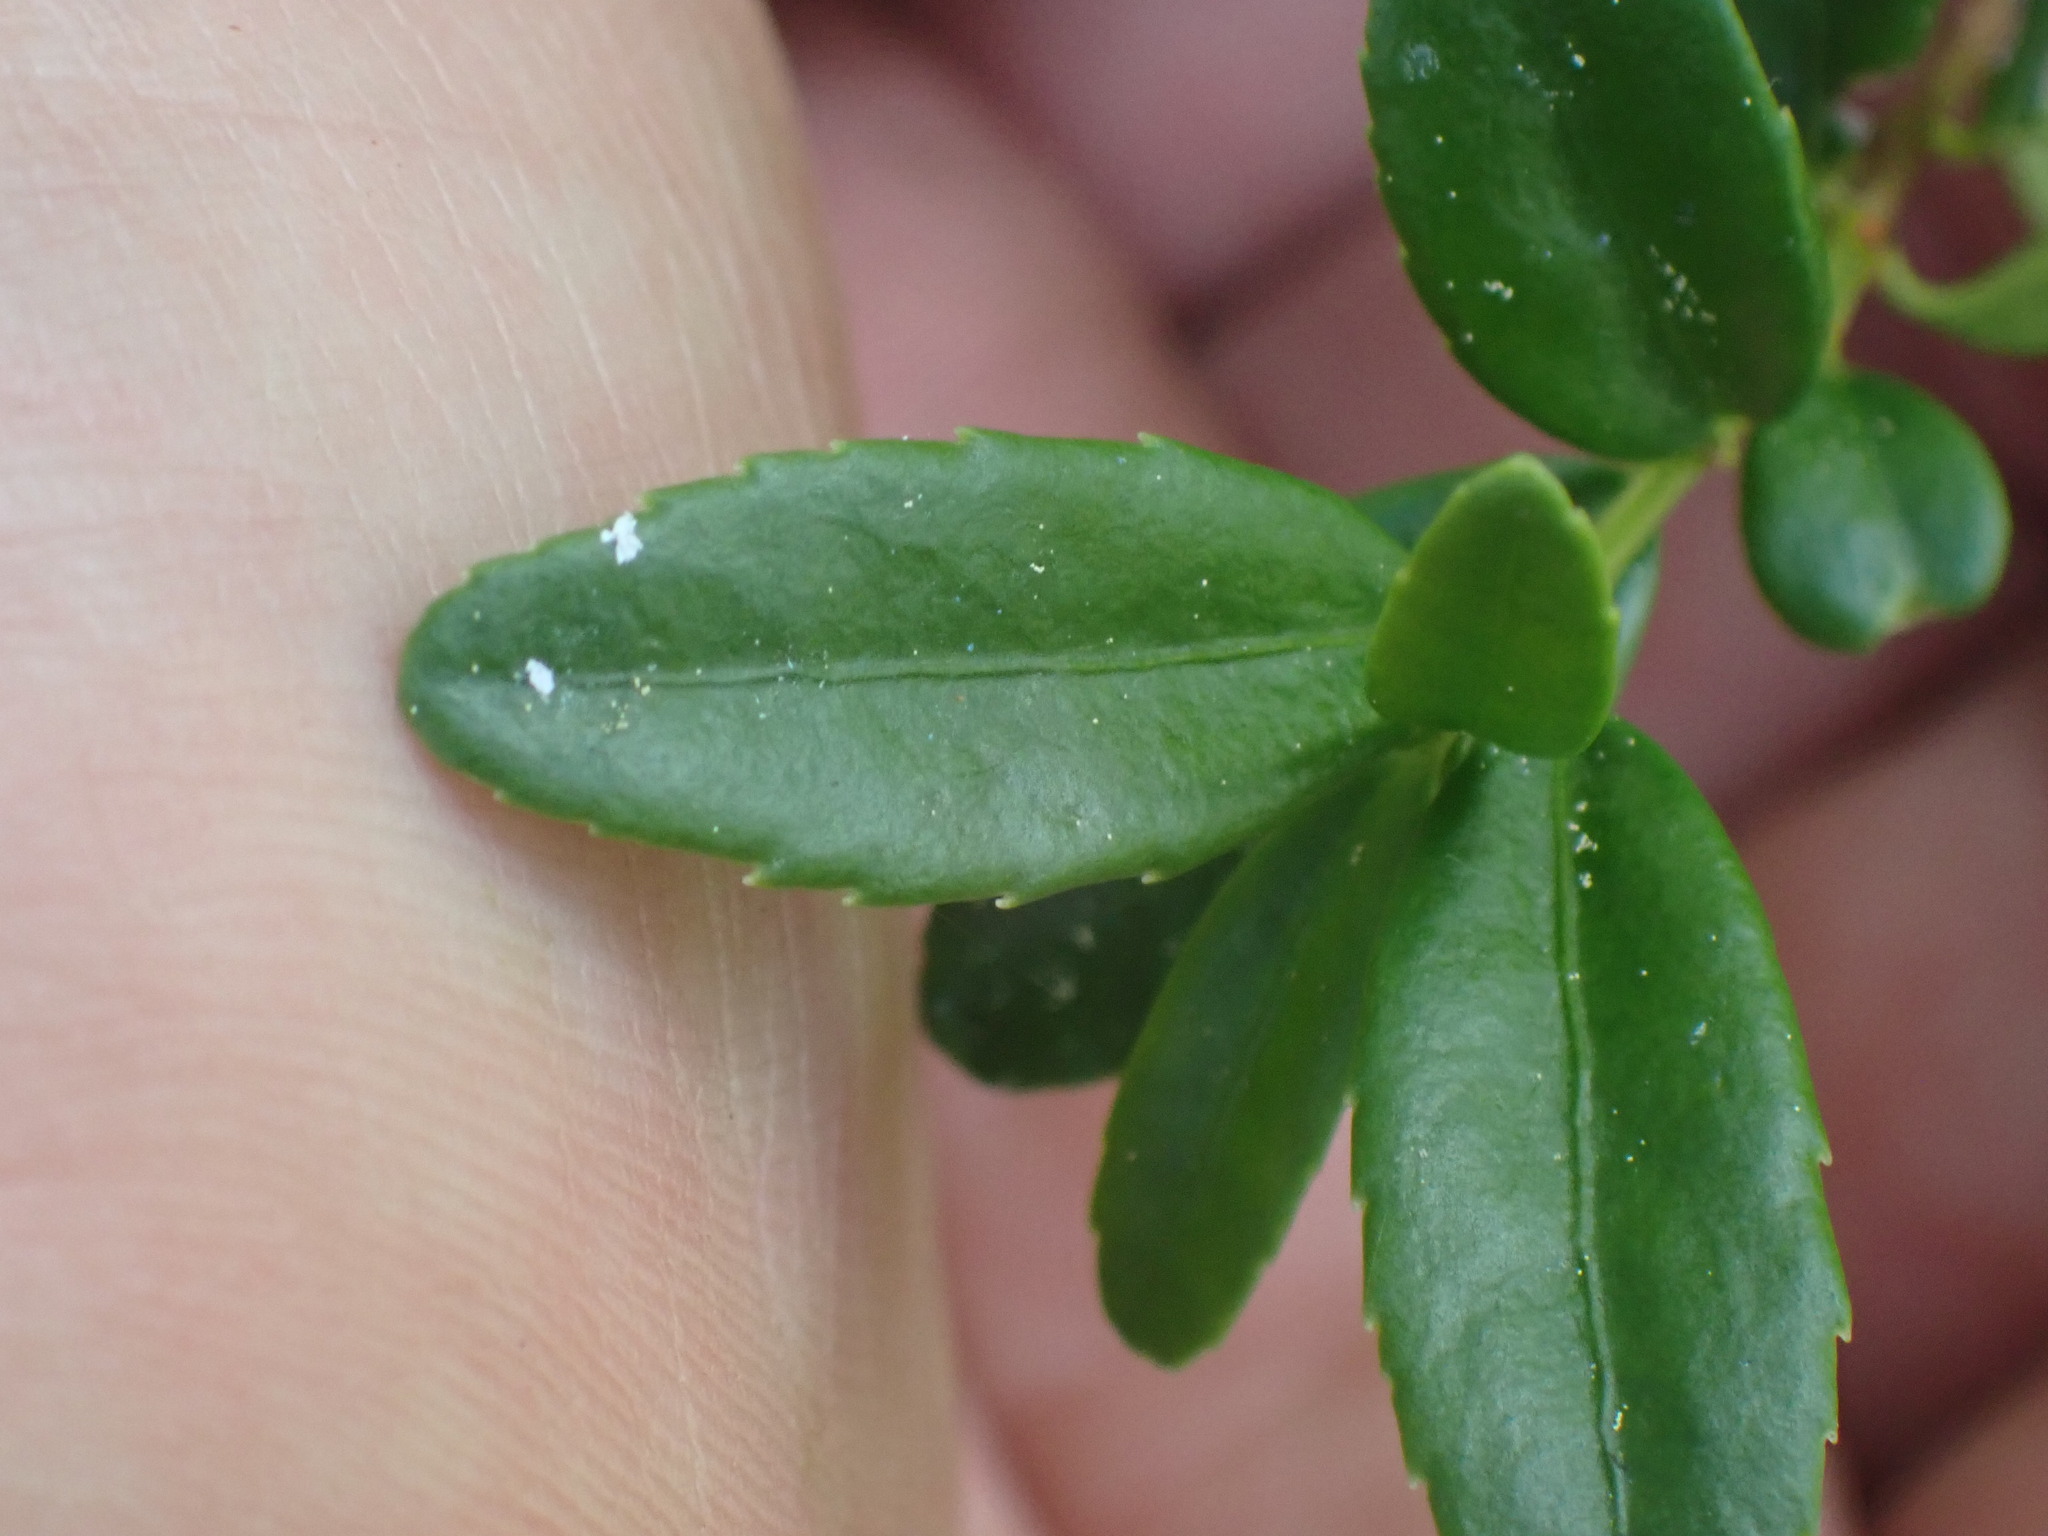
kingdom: Plantae
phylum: Tracheophyta
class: Magnoliopsida
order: Celastrales
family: Celastraceae
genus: Paxistima
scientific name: Paxistima myrsinites
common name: Mountain-lover
